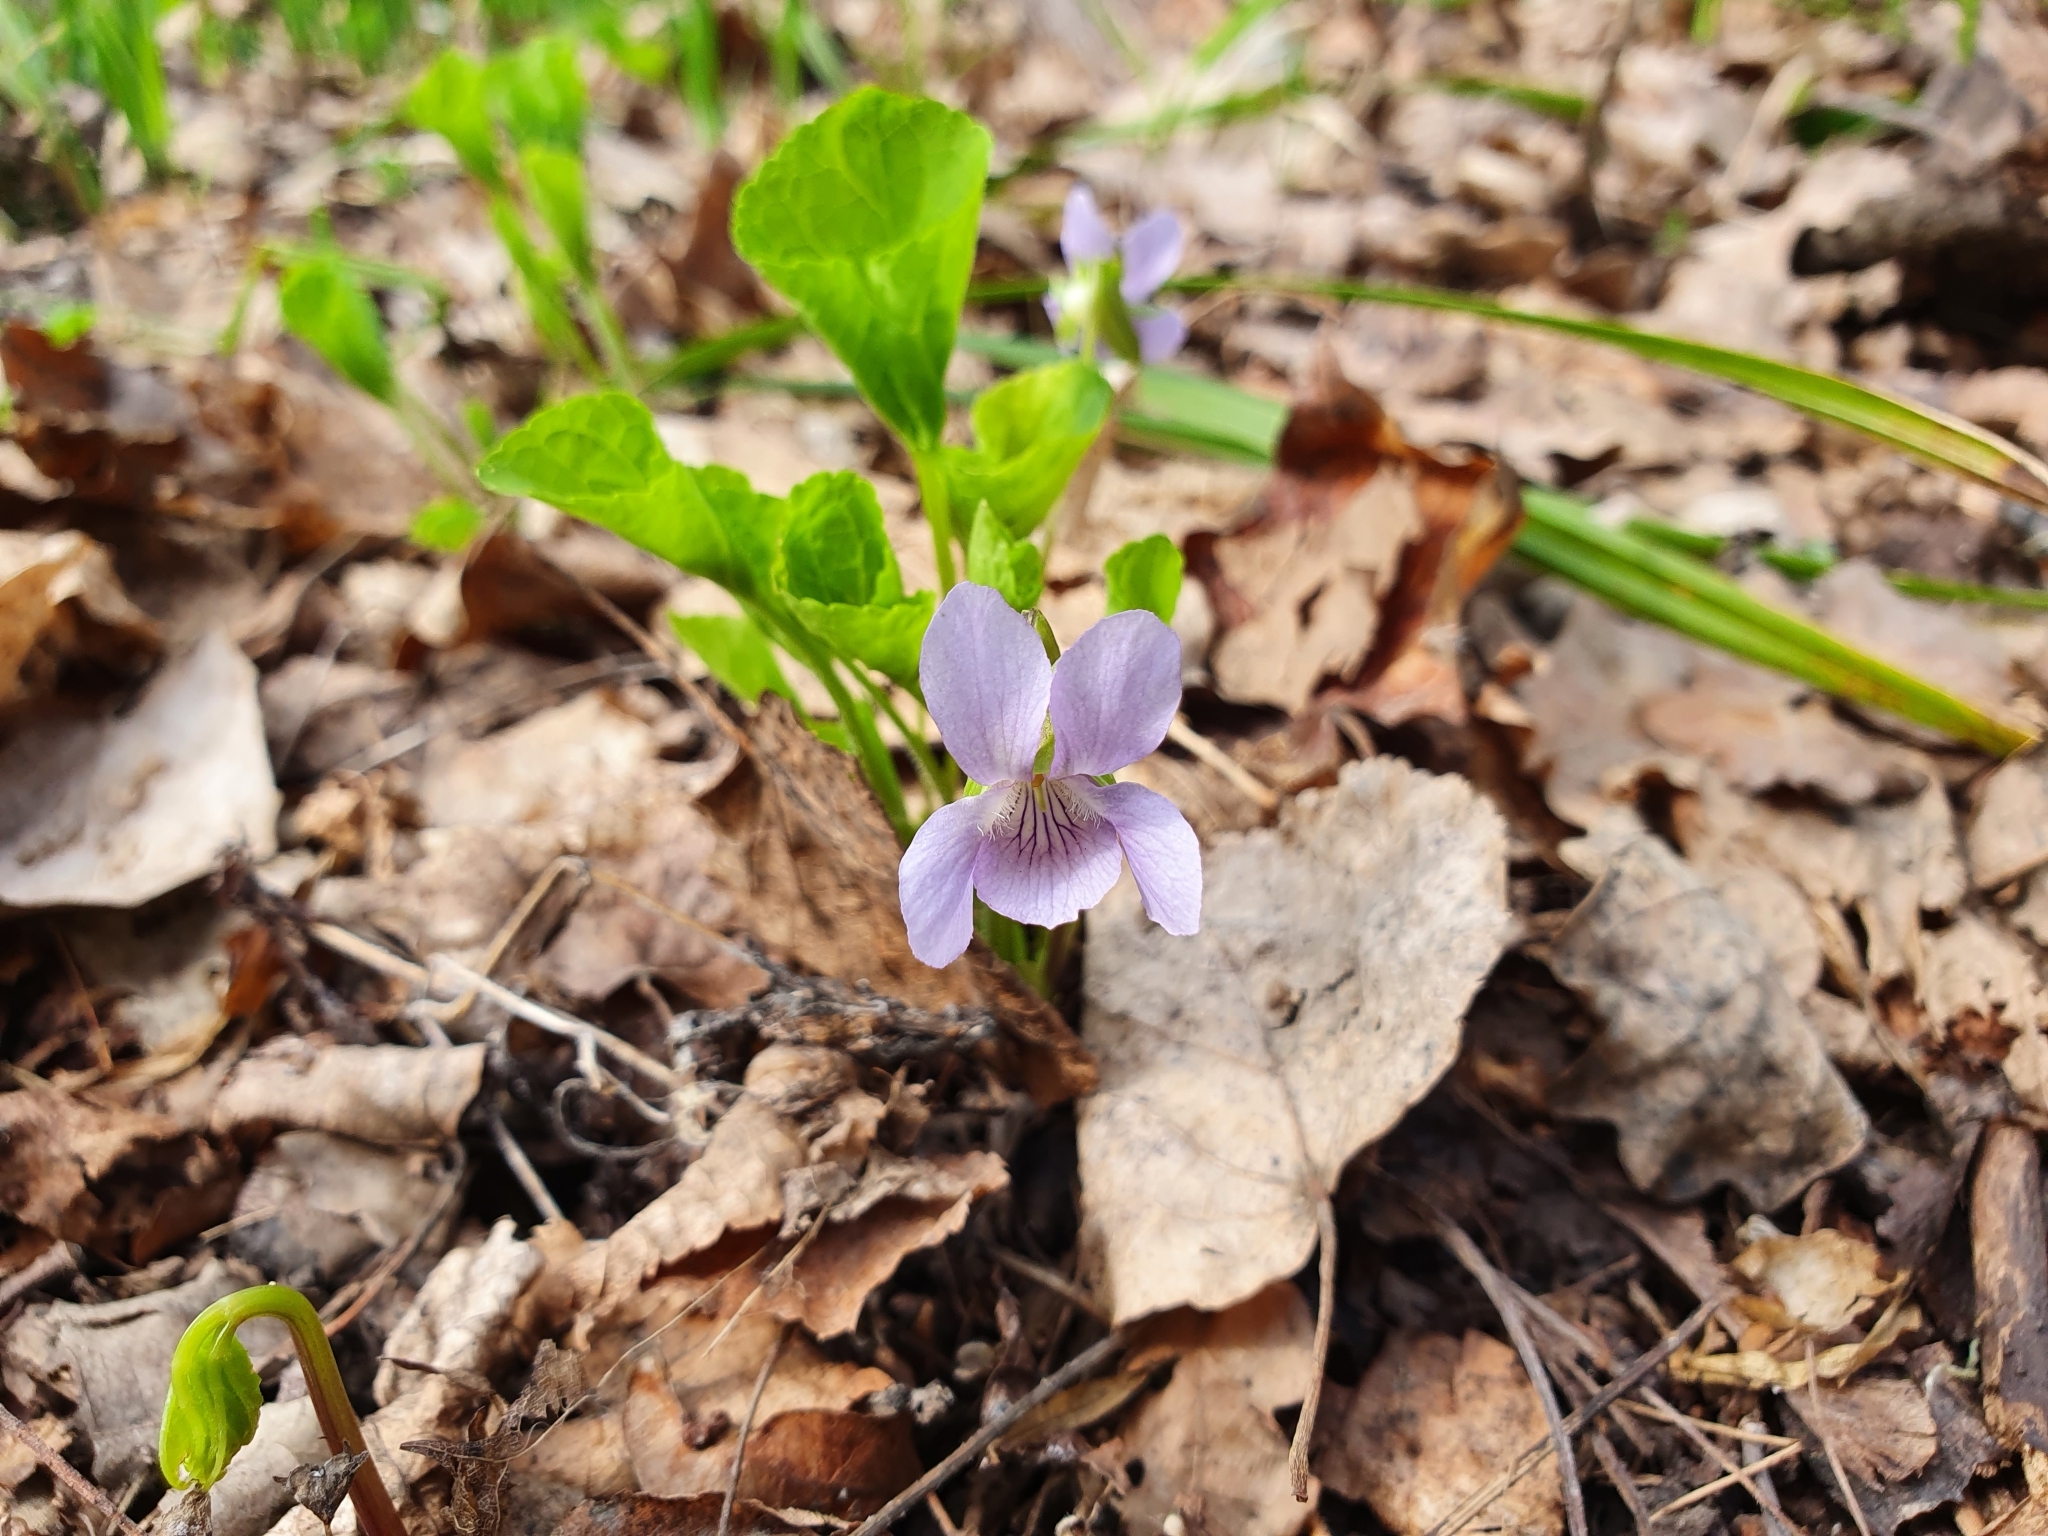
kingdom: Plantae
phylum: Tracheophyta
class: Magnoliopsida
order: Malpighiales
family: Violaceae
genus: Viola
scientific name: Viola mirabilis
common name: Wonder violet
